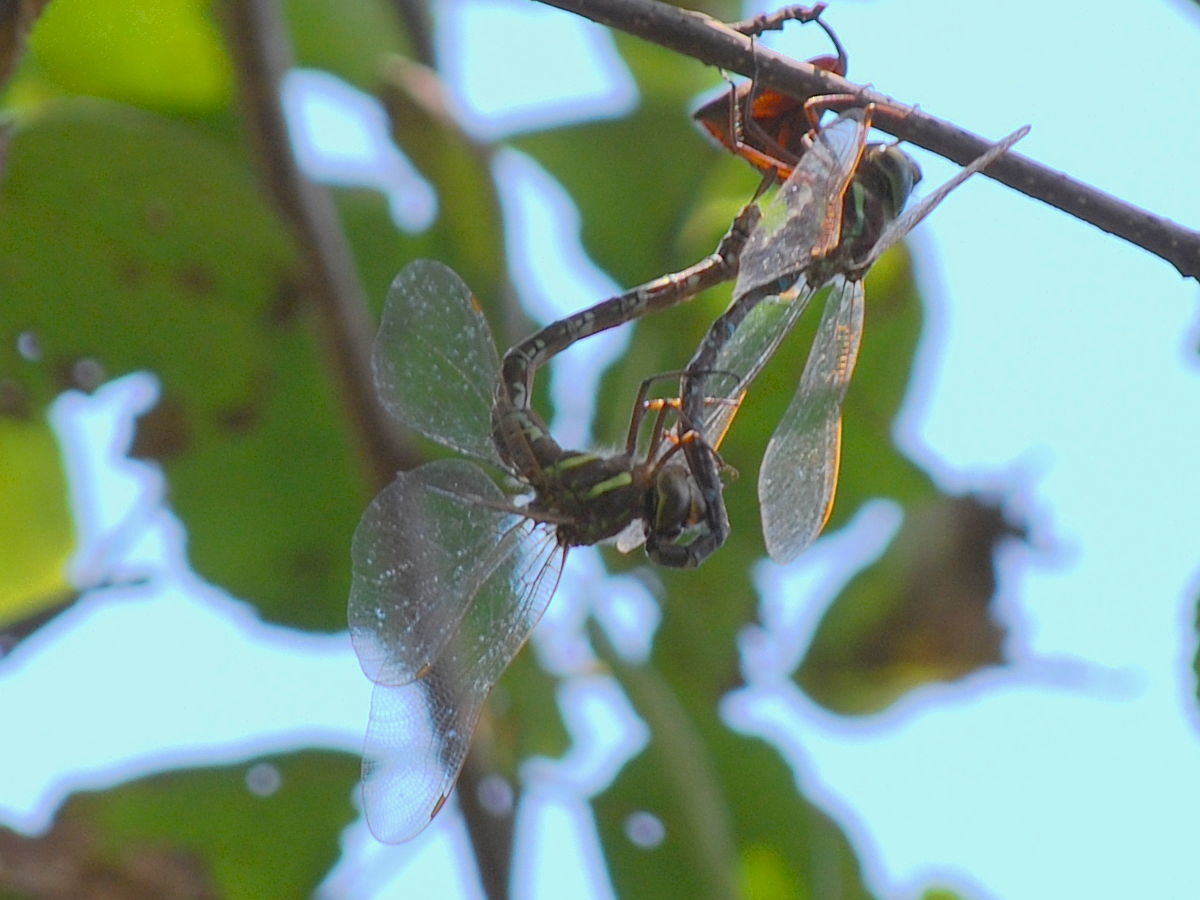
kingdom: Animalia
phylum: Arthropoda
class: Insecta
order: Odonata
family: Aeshnidae
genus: Aeshna
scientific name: Aeshna umbrosa
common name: Shadow darner
